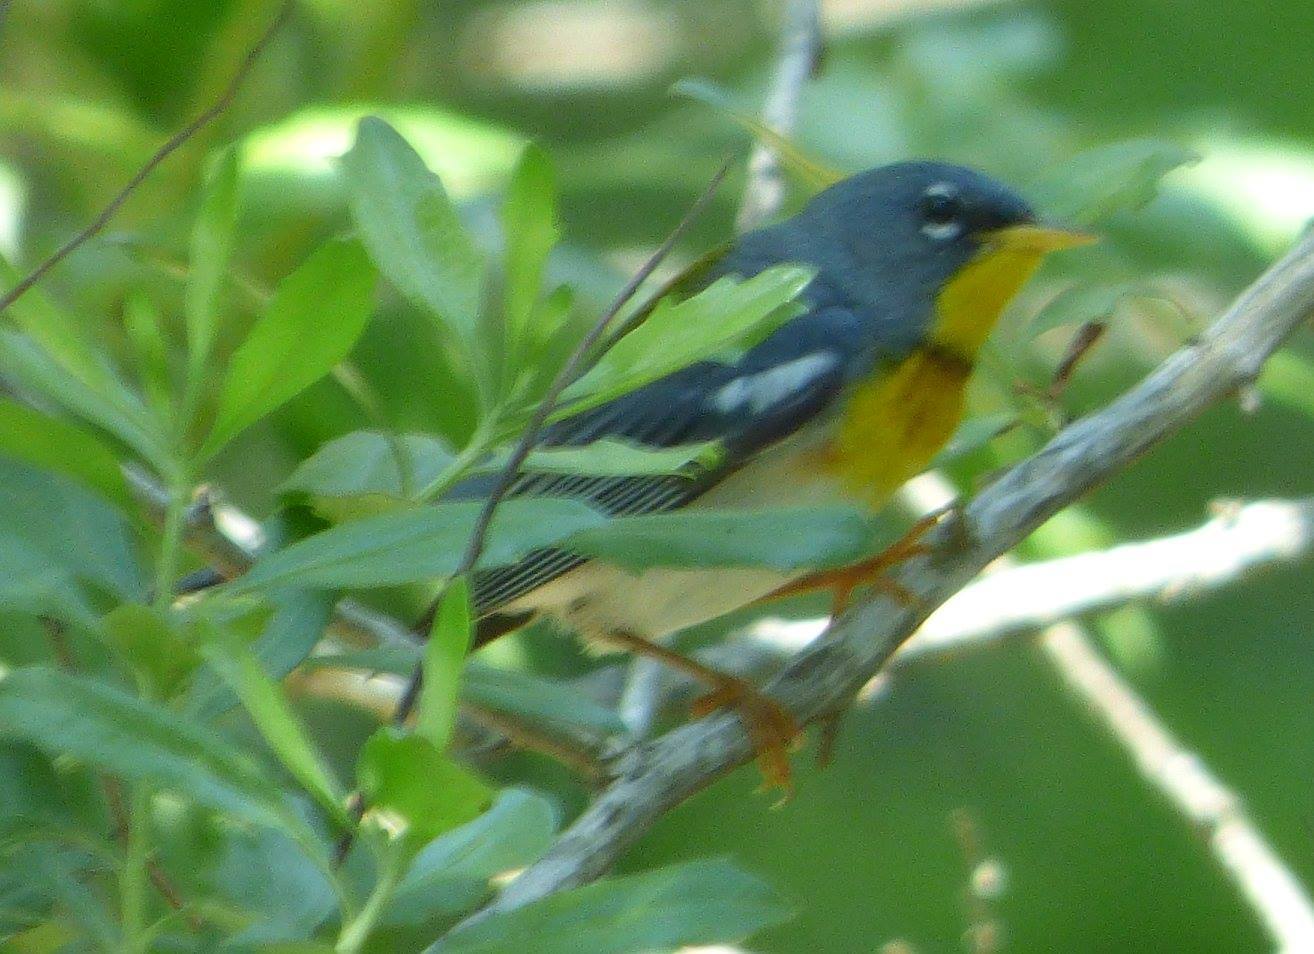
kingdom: Animalia
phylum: Chordata
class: Aves
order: Passeriformes
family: Parulidae
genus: Setophaga
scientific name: Setophaga americana
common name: Northern parula
